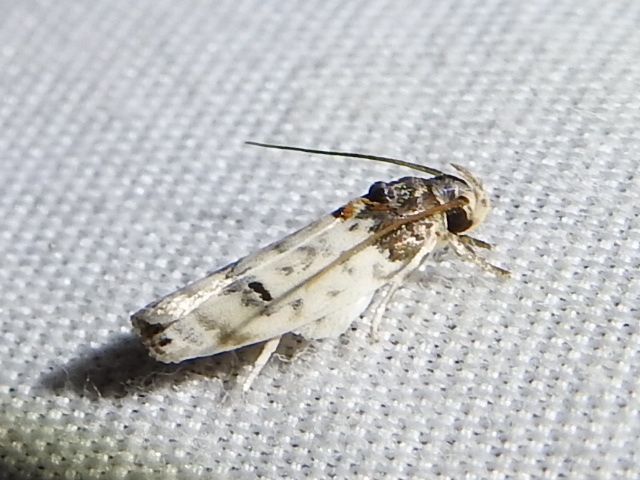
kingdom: Animalia
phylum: Arthropoda
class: Insecta
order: Lepidoptera
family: Depressariidae
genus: Antaeotricha
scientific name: Antaeotricha irene
